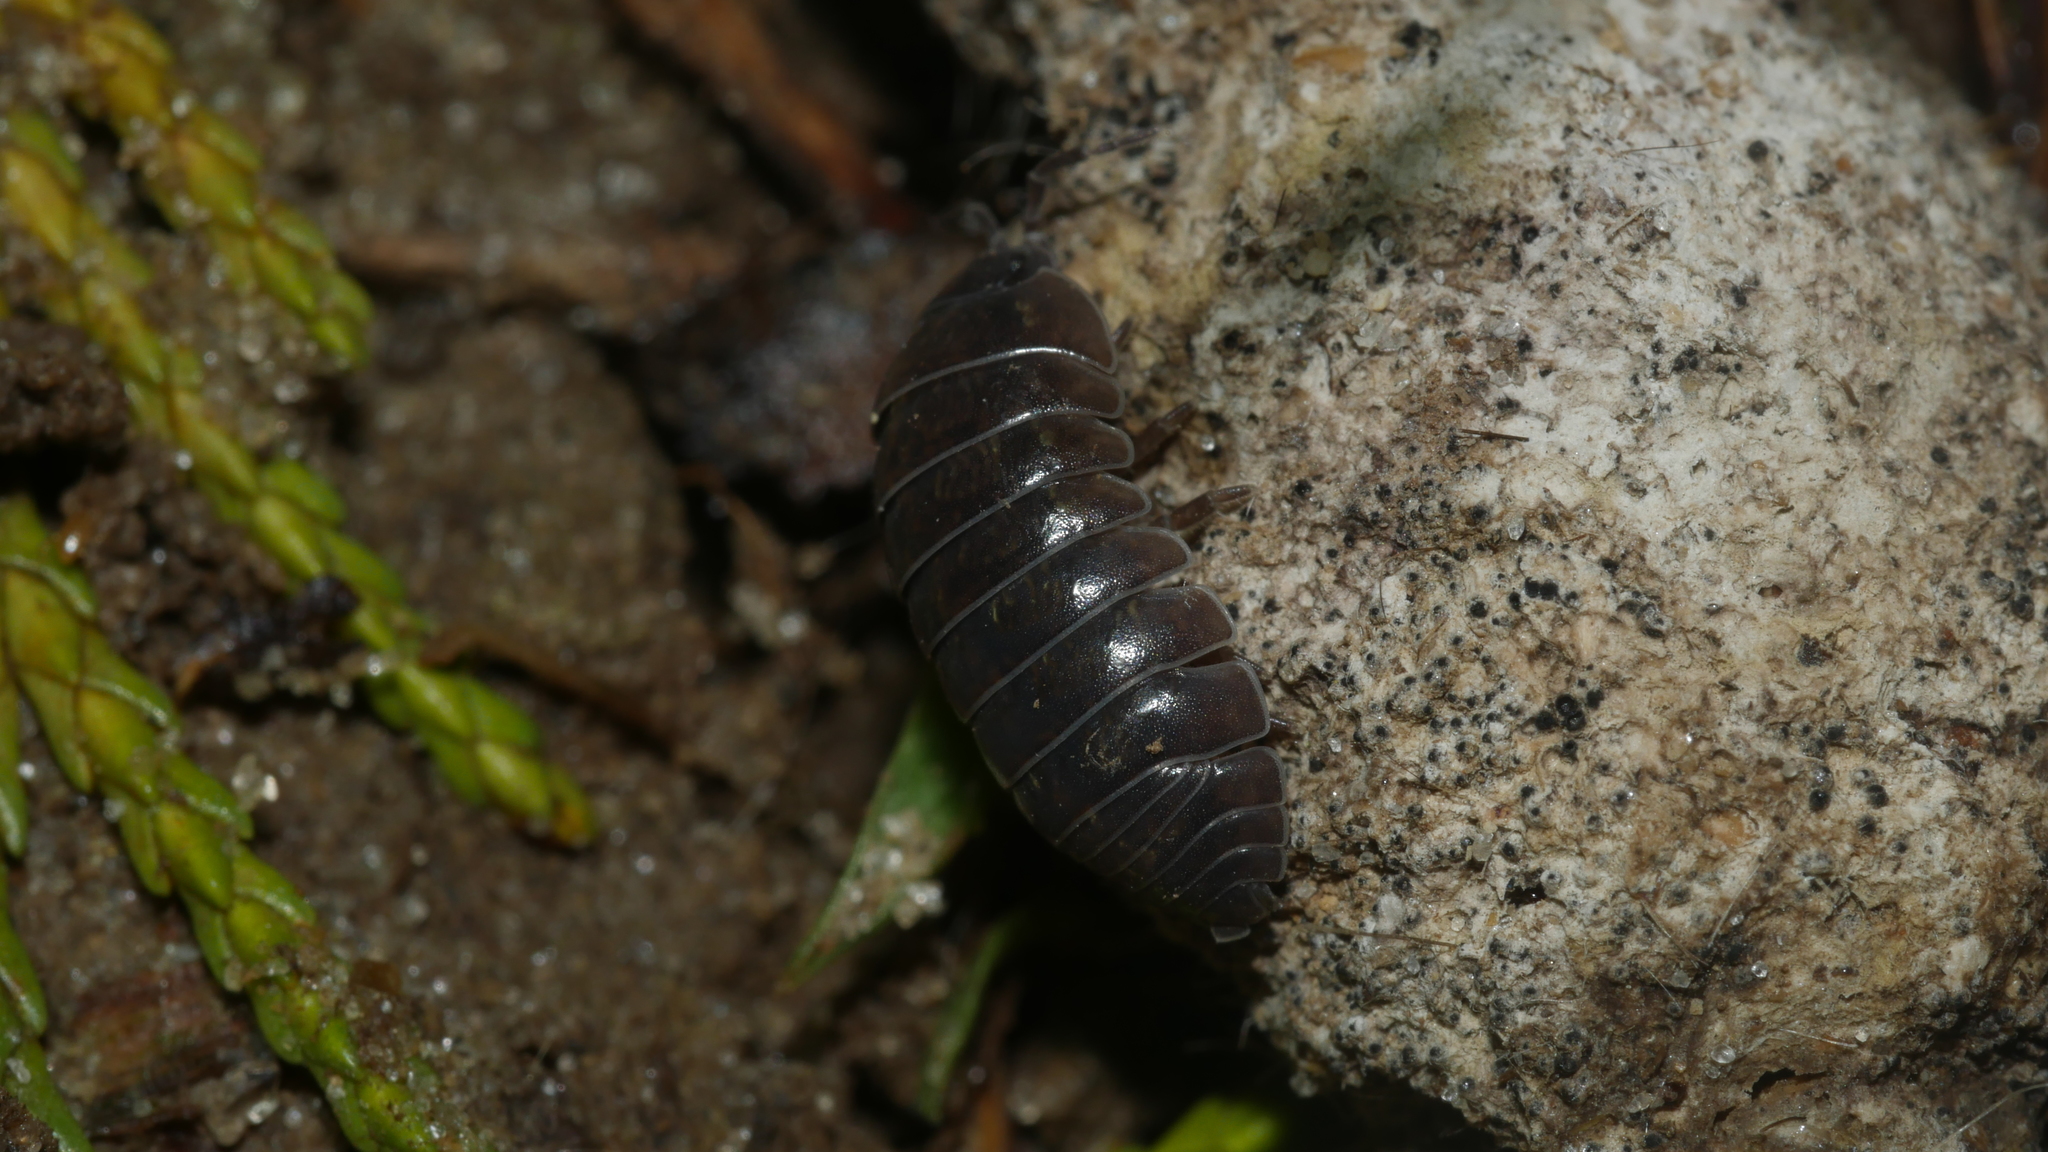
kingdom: Animalia
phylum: Arthropoda
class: Malacostraca
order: Isopoda
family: Armadillidiidae
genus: Armadillidium
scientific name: Armadillidium vulgare
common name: Common pill woodlouse
